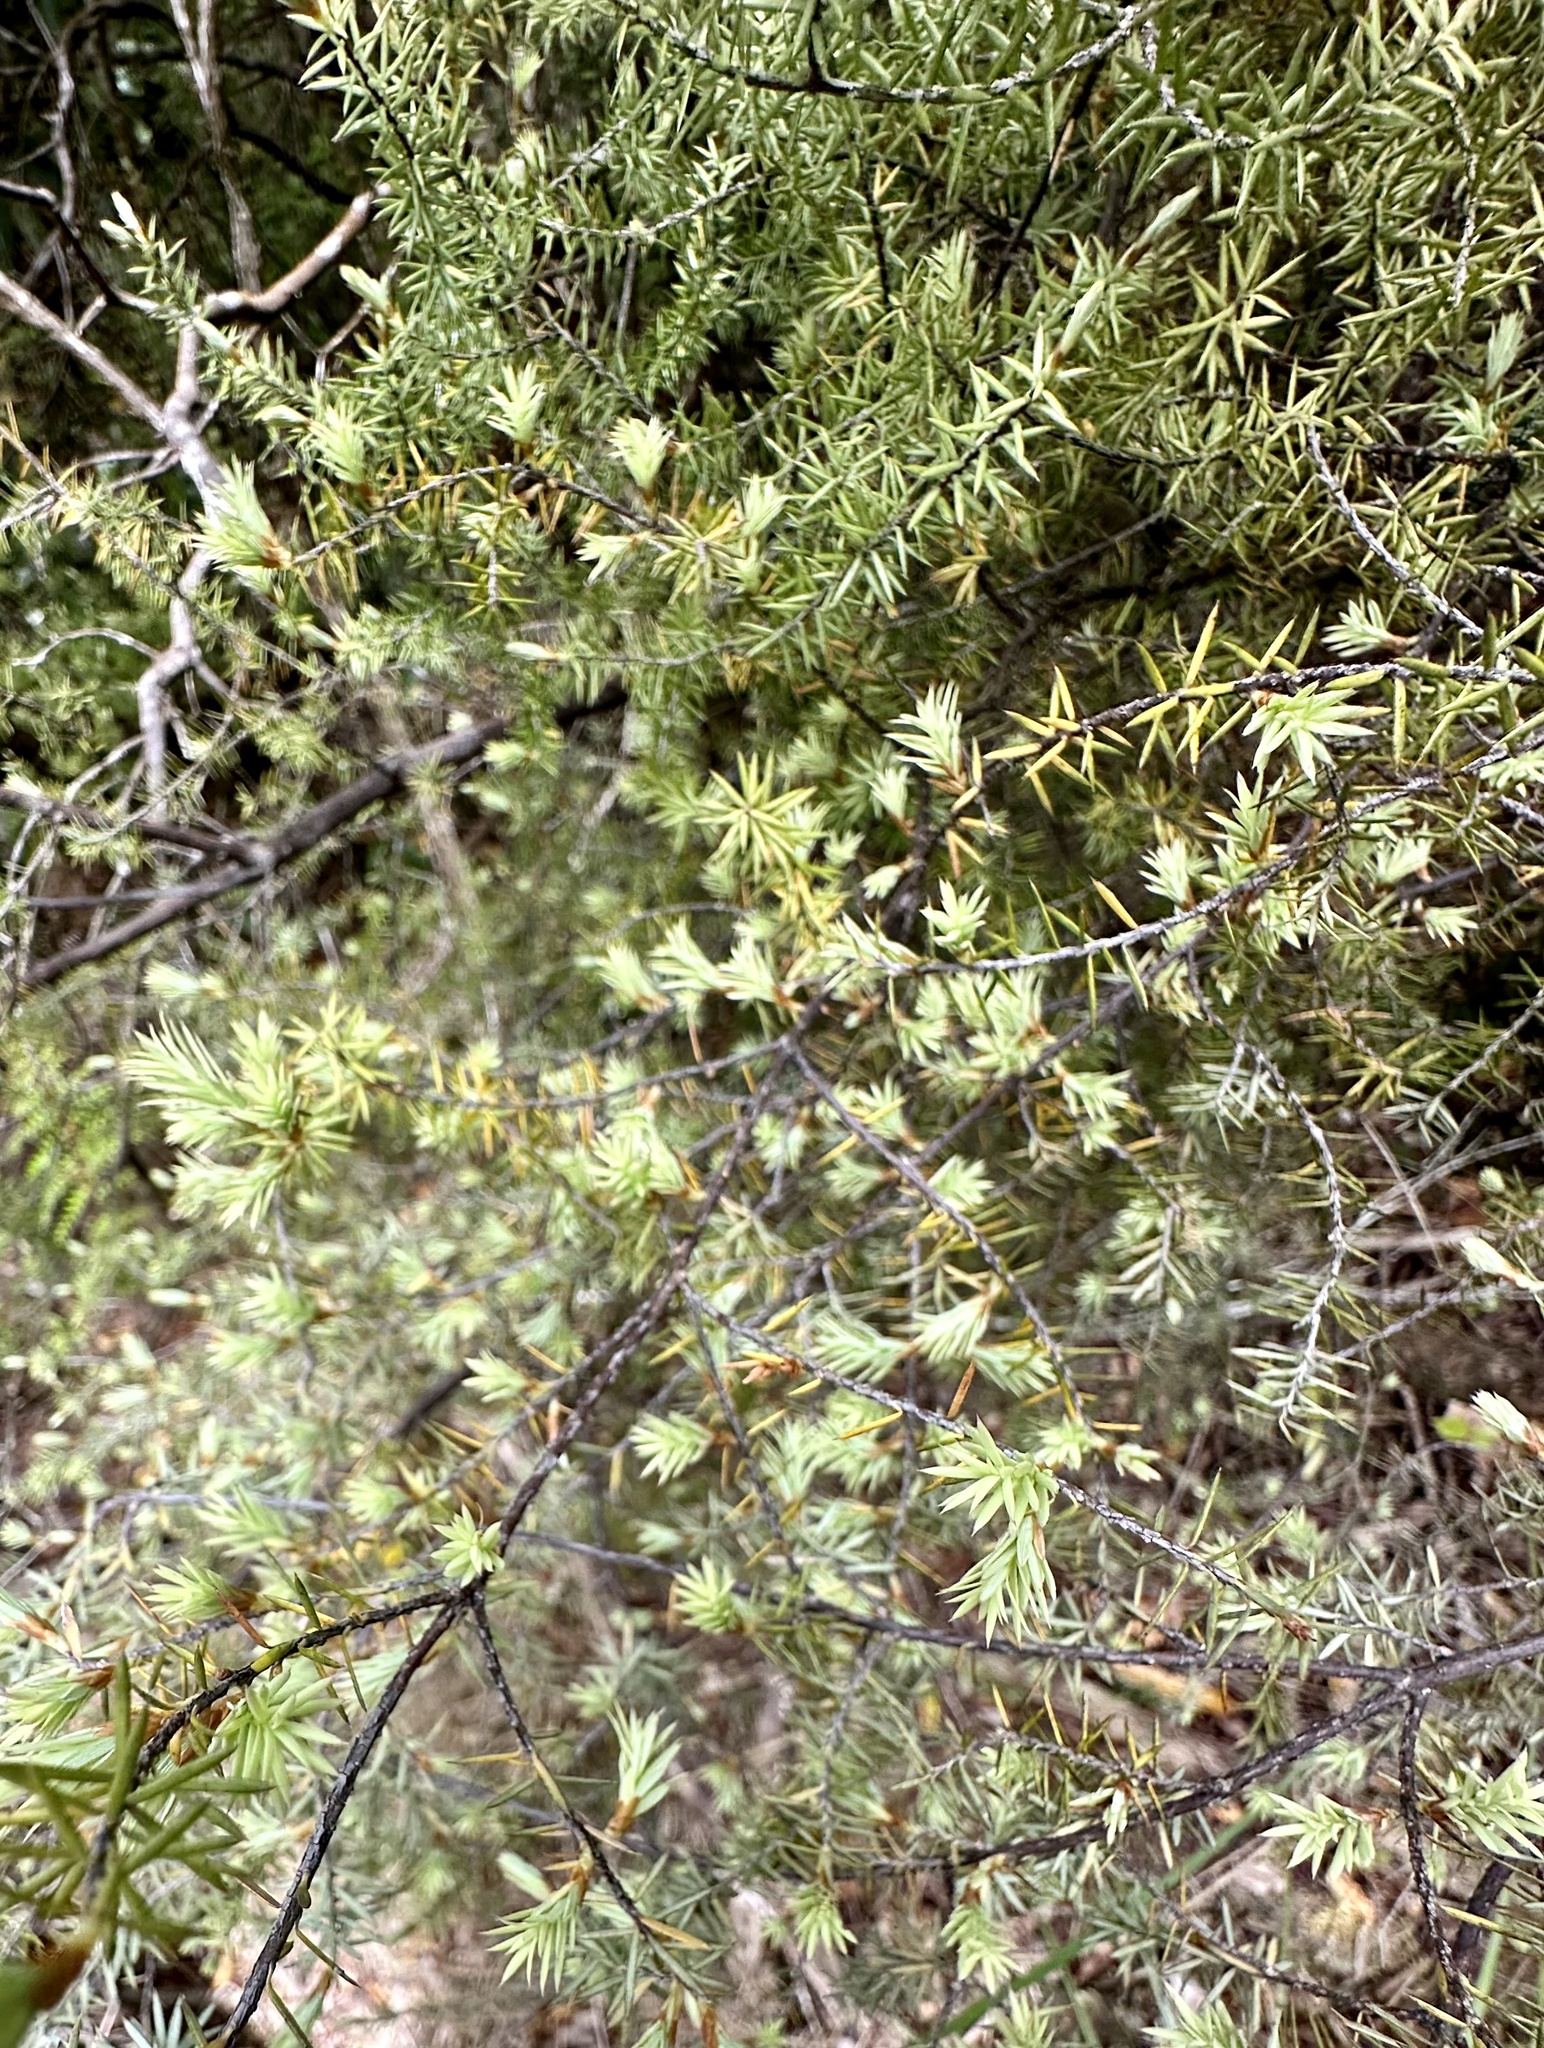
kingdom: Plantae
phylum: Tracheophyta
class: Magnoliopsida
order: Ericales
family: Ericaceae
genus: Leptecophylla
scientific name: Leptecophylla juniperina
